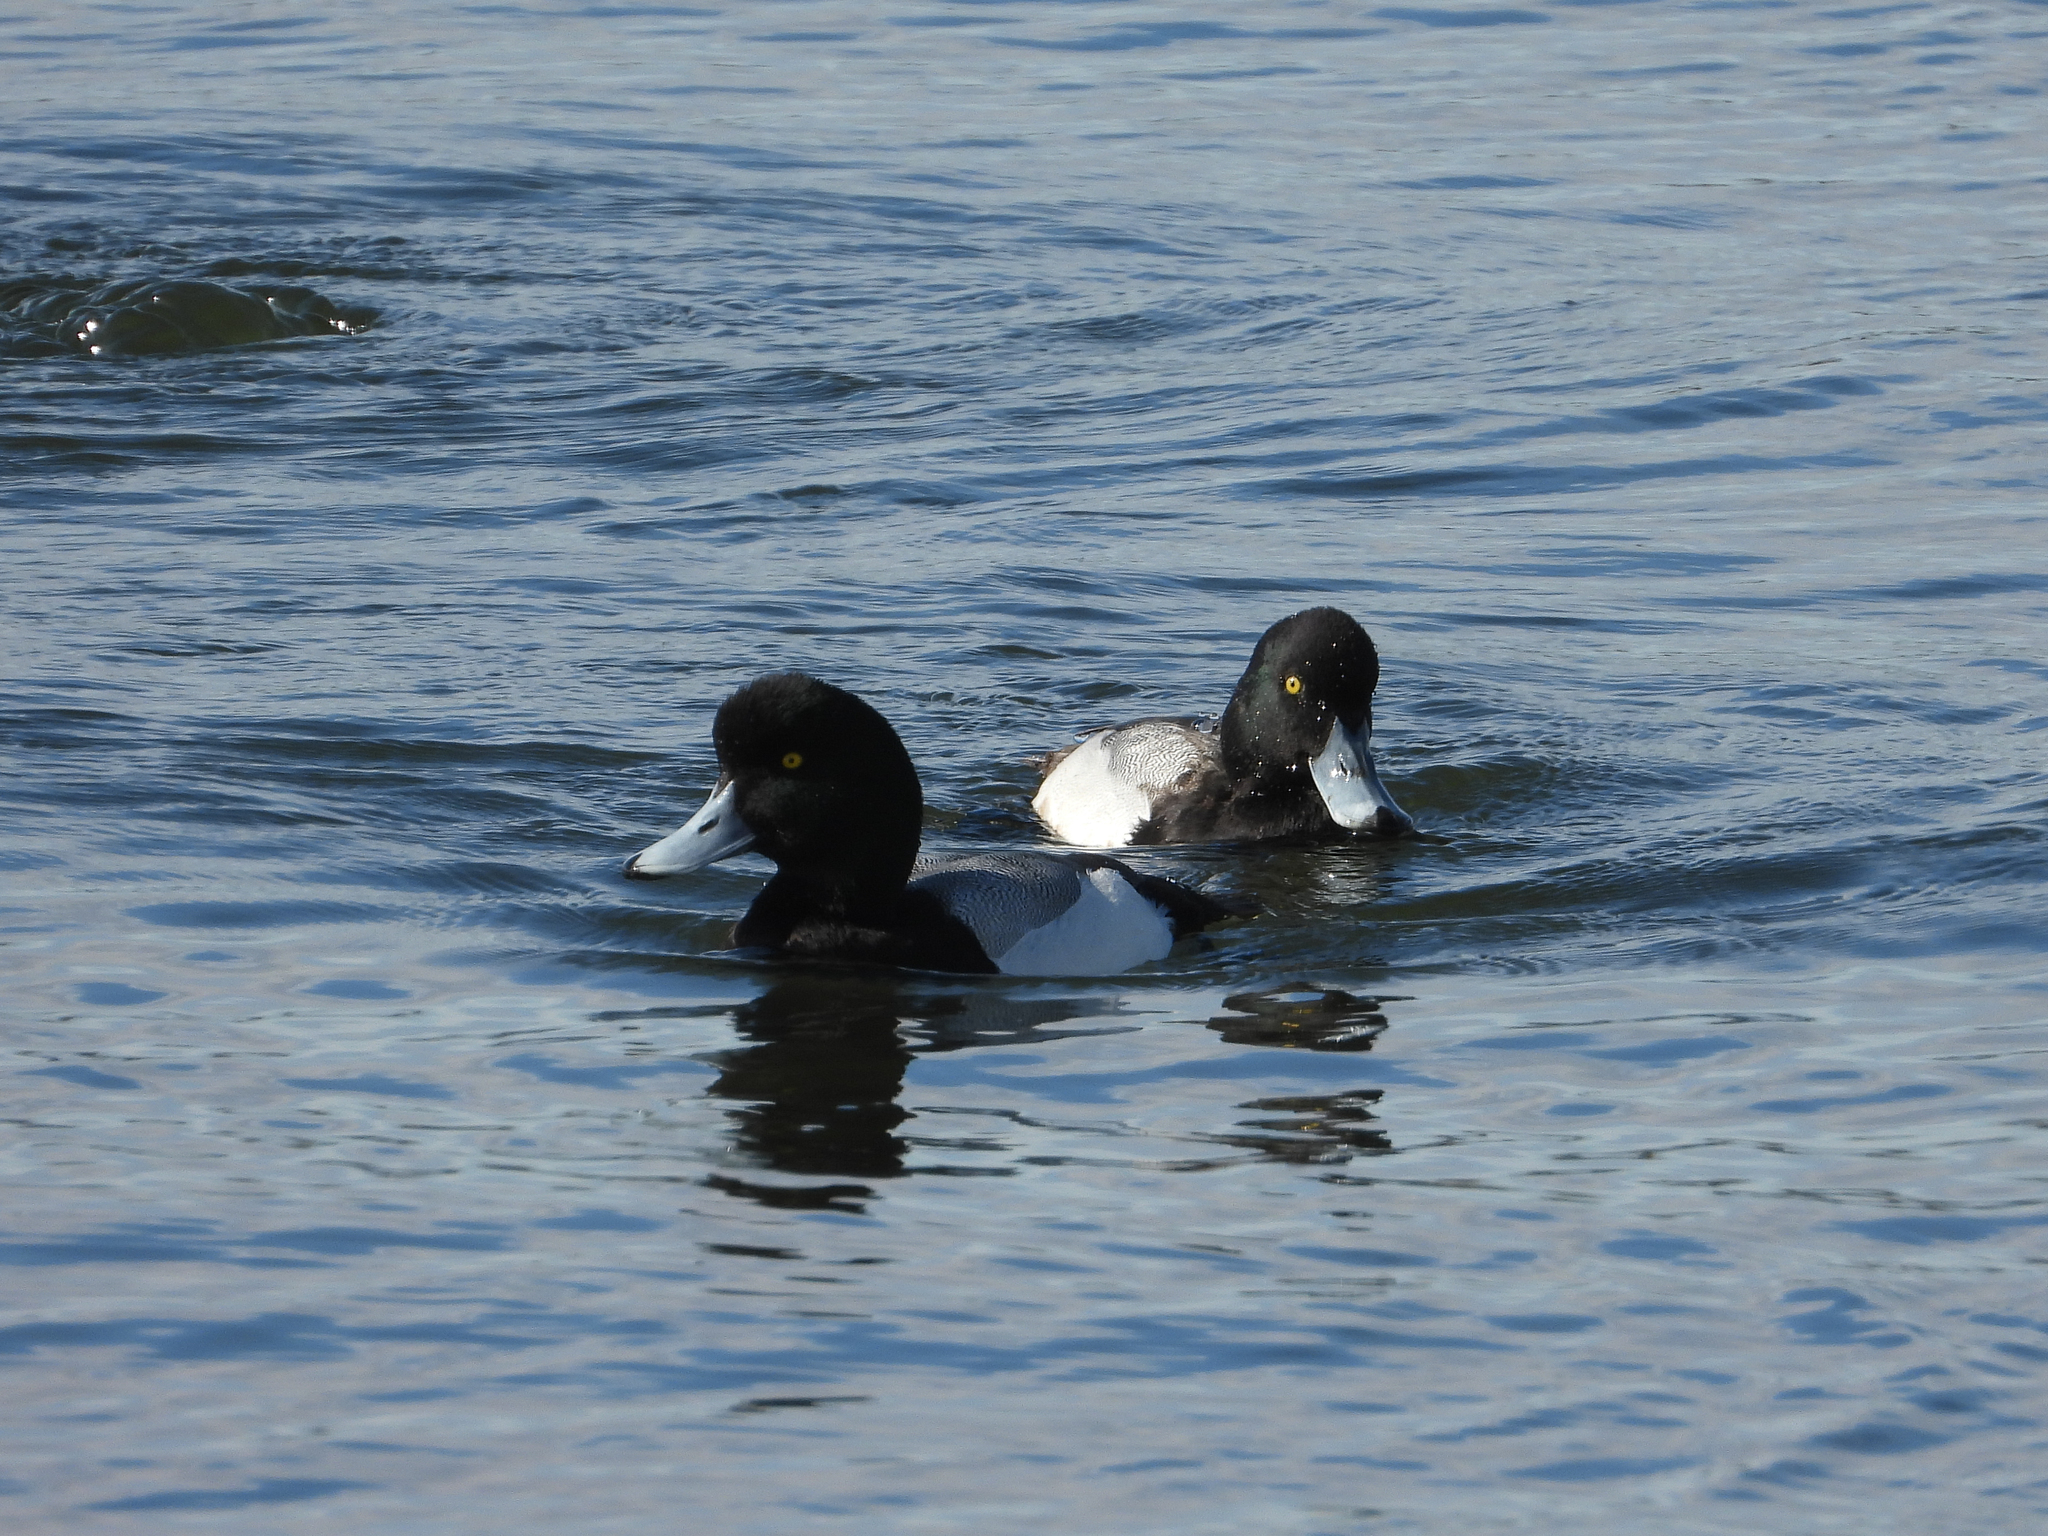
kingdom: Animalia
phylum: Chordata
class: Aves
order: Anseriformes
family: Anatidae
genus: Aythya
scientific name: Aythya marila
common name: Greater scaup
